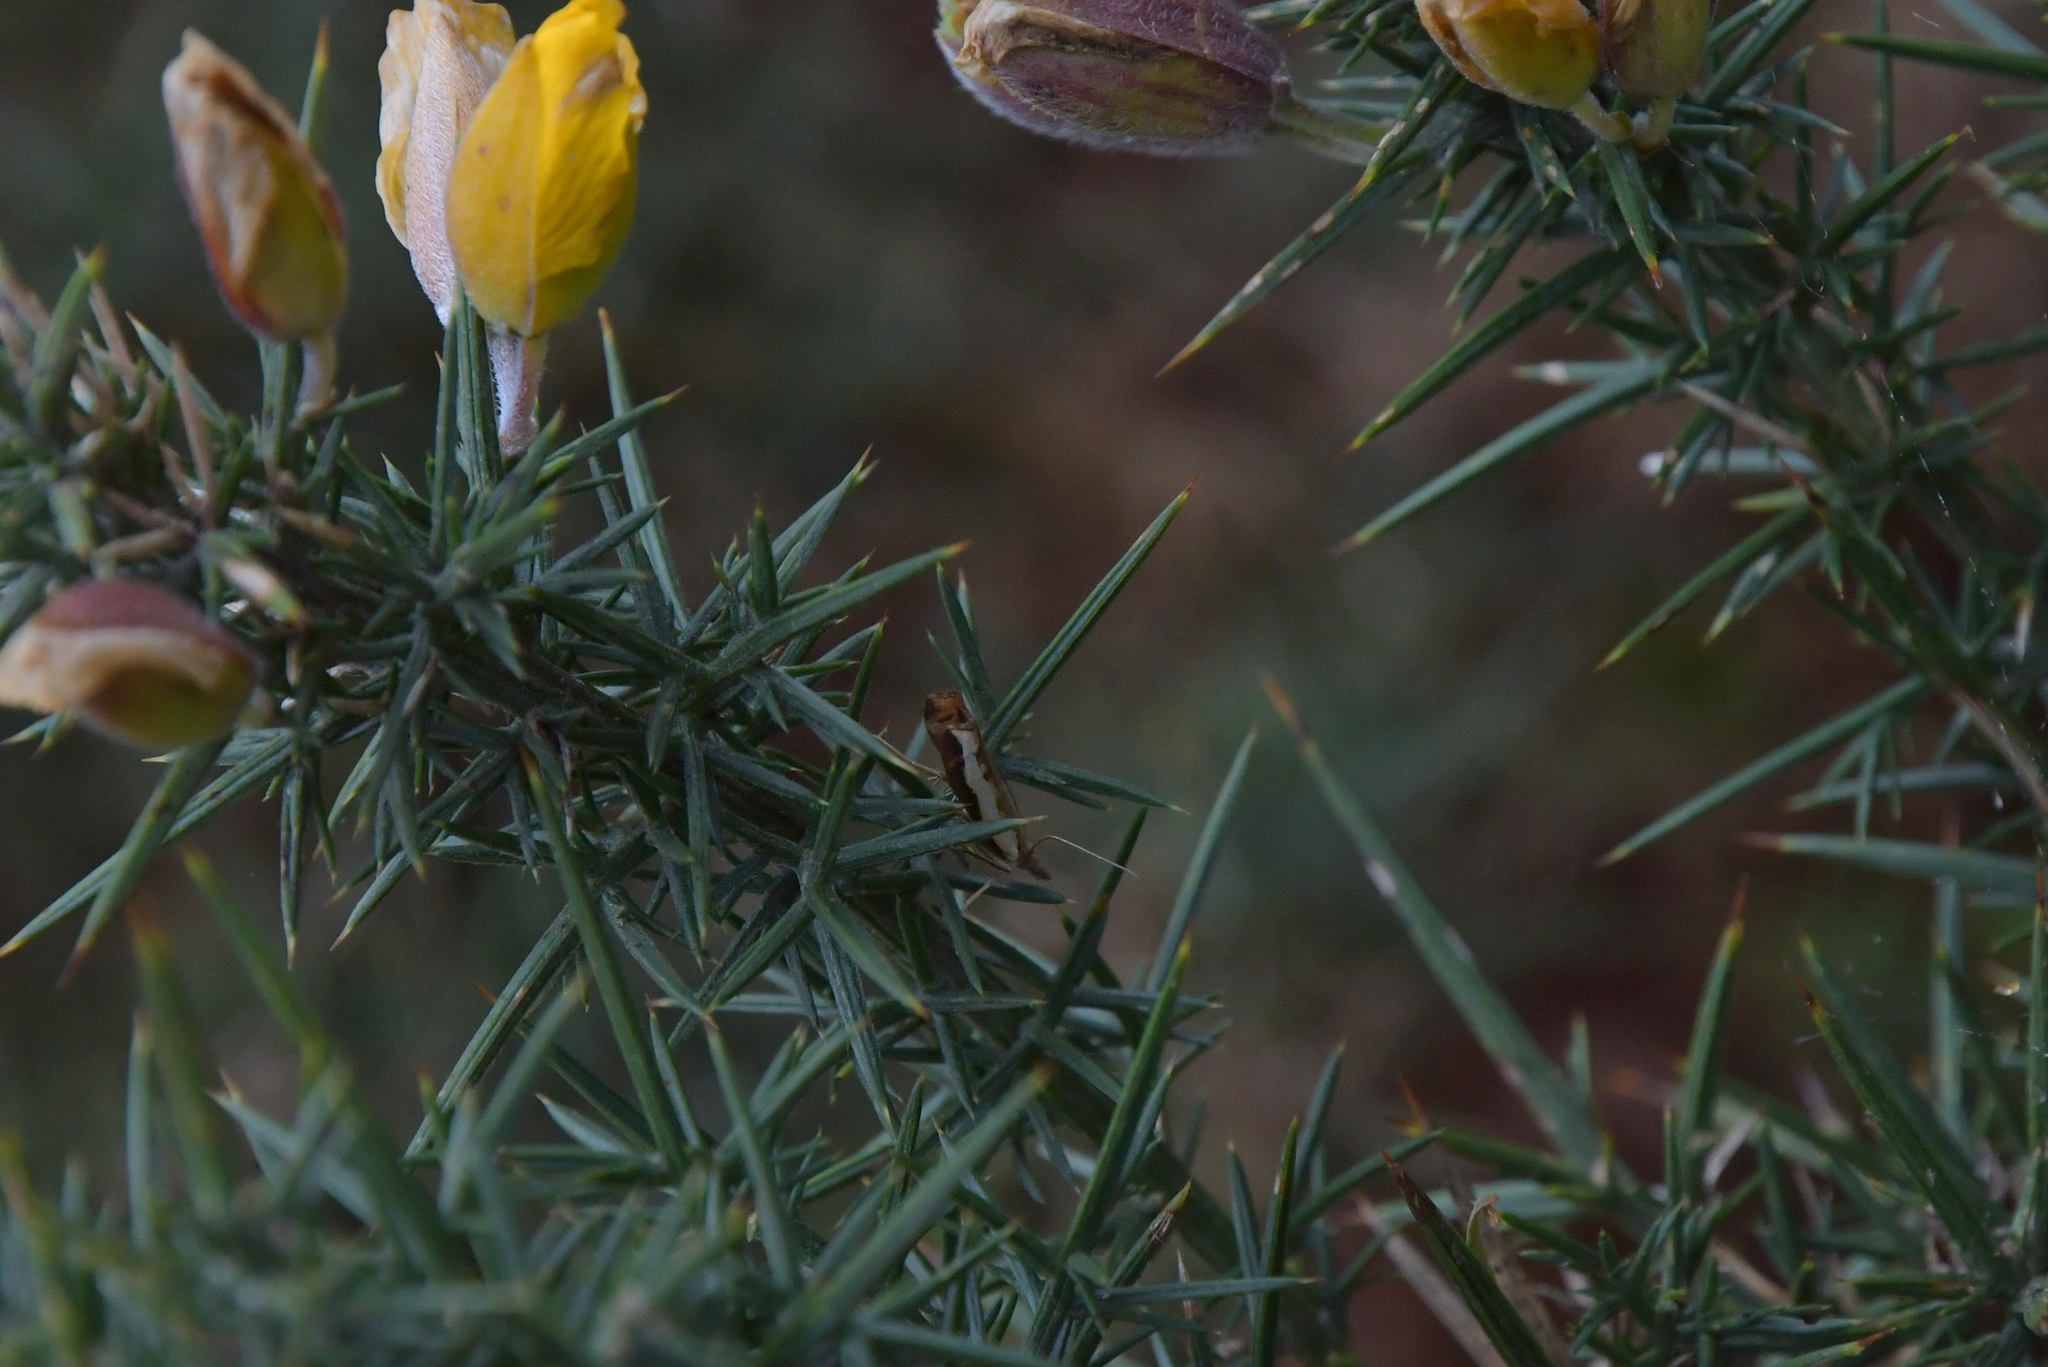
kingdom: Animalia
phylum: Arthropoda
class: Insecta
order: Lepidoptera
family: Crambidae
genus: Orocrambus
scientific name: Orocrambus flexuosellus
